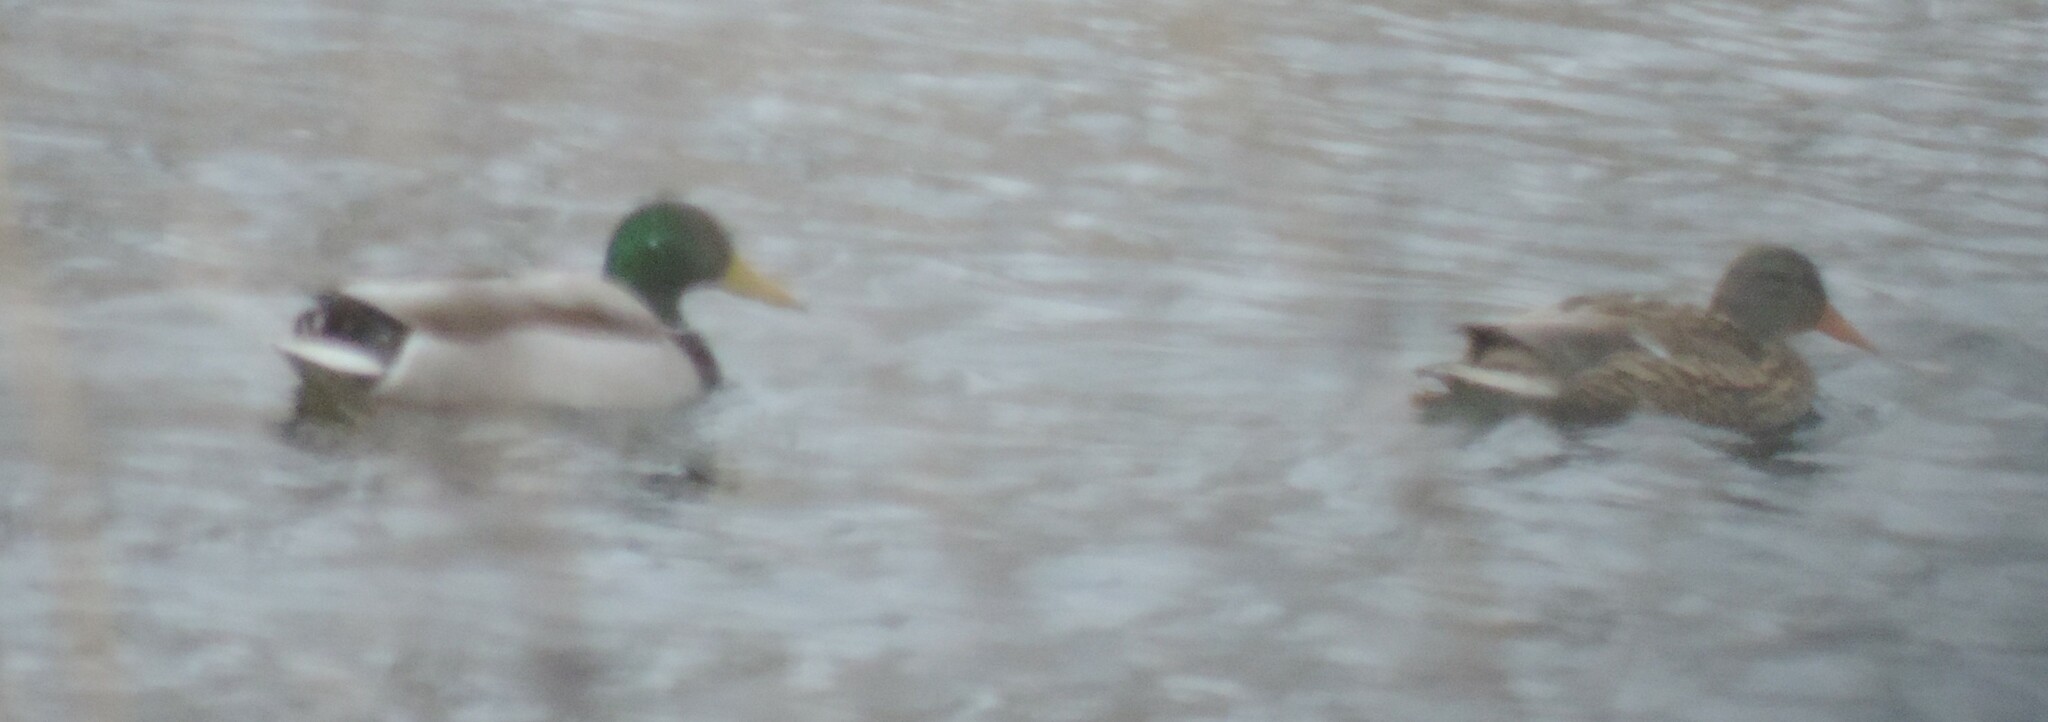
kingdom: Animalia
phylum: Chordata
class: Aves
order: Anseriformes
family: Anatidae
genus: Anas
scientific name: Anas platyrhynchos
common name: Mallard
